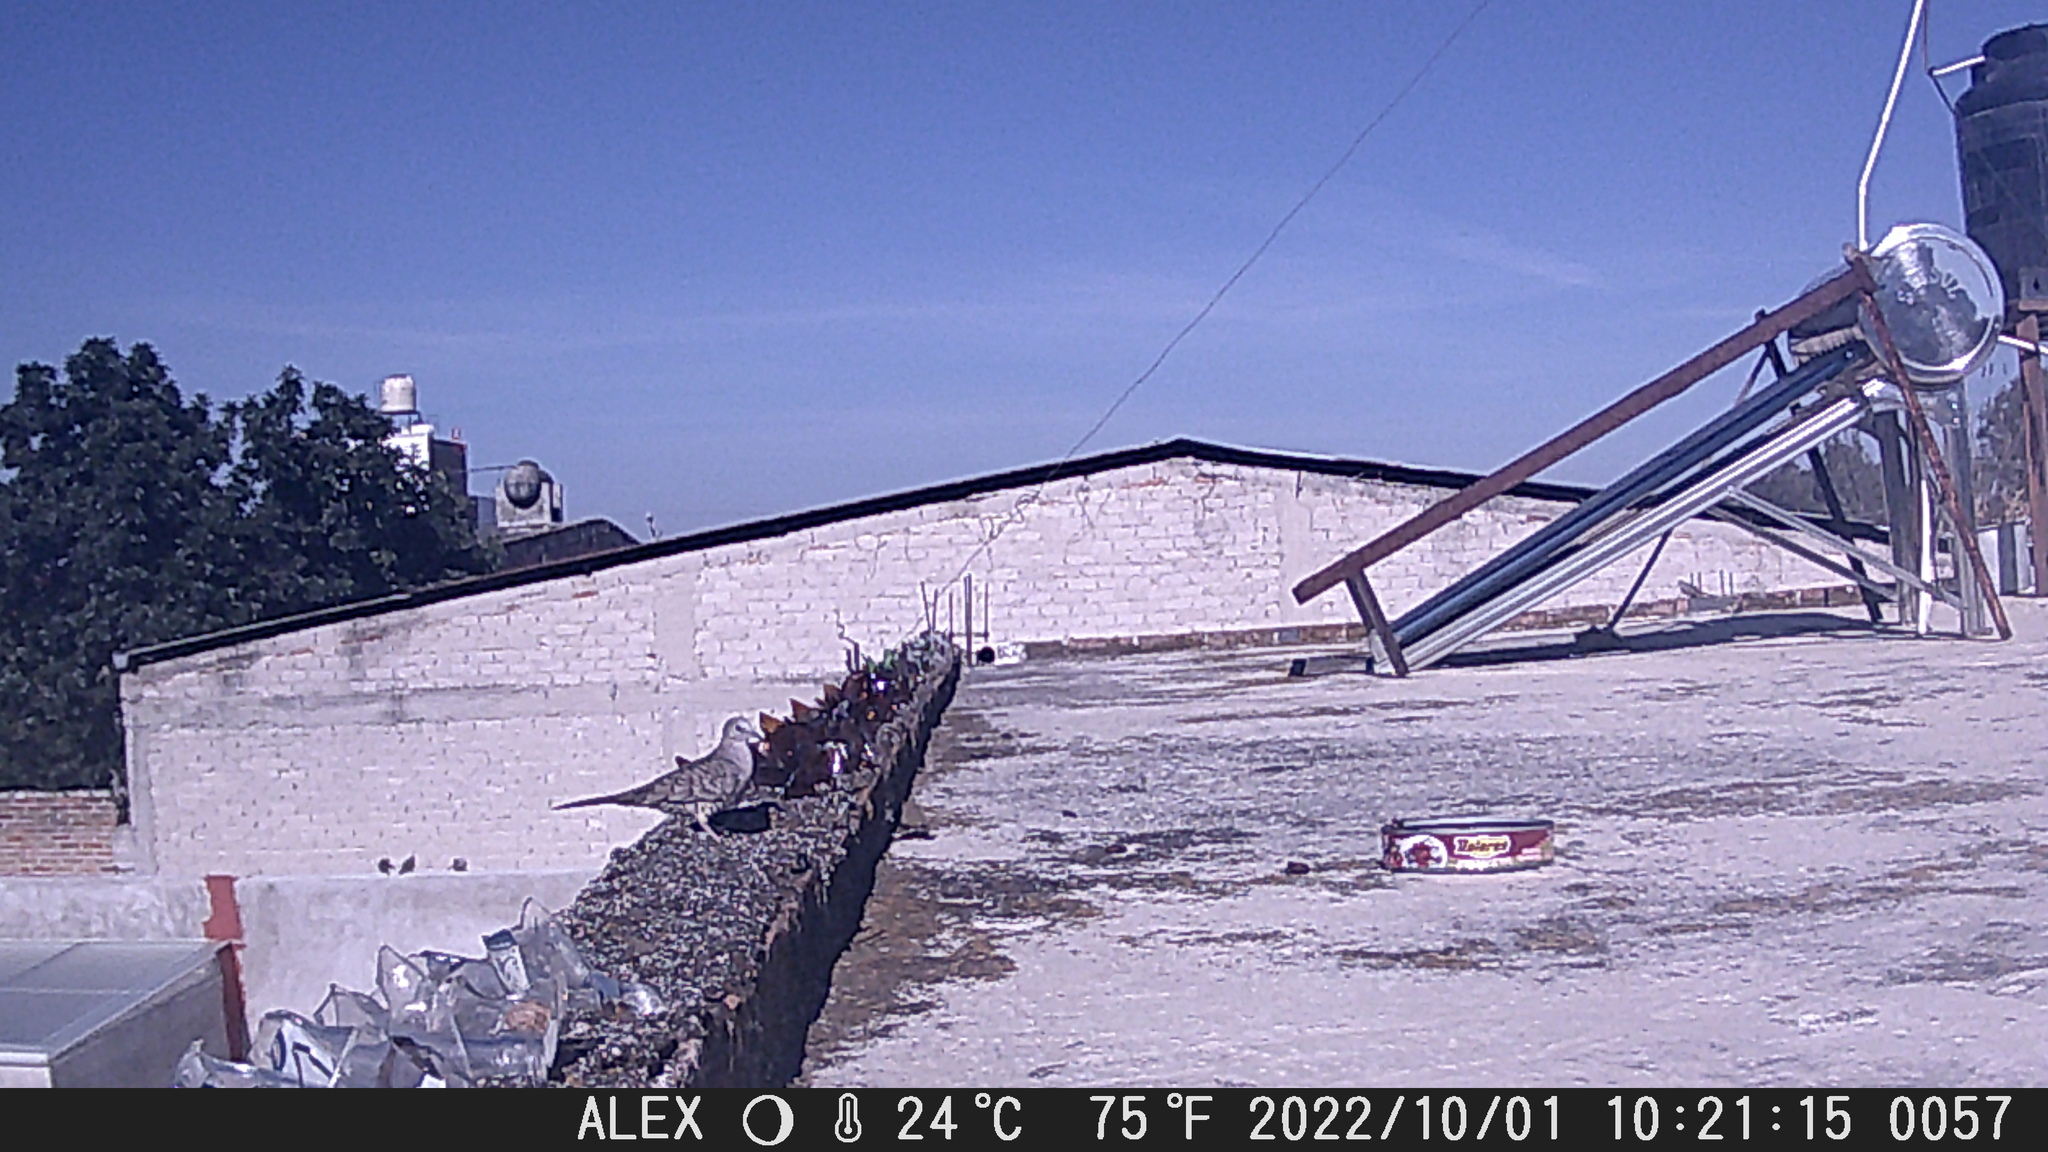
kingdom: Animalia
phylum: Chordata
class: Aves
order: Columbiformes
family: Columbidae
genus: Columbina
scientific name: Columbina inca
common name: Inca dove
